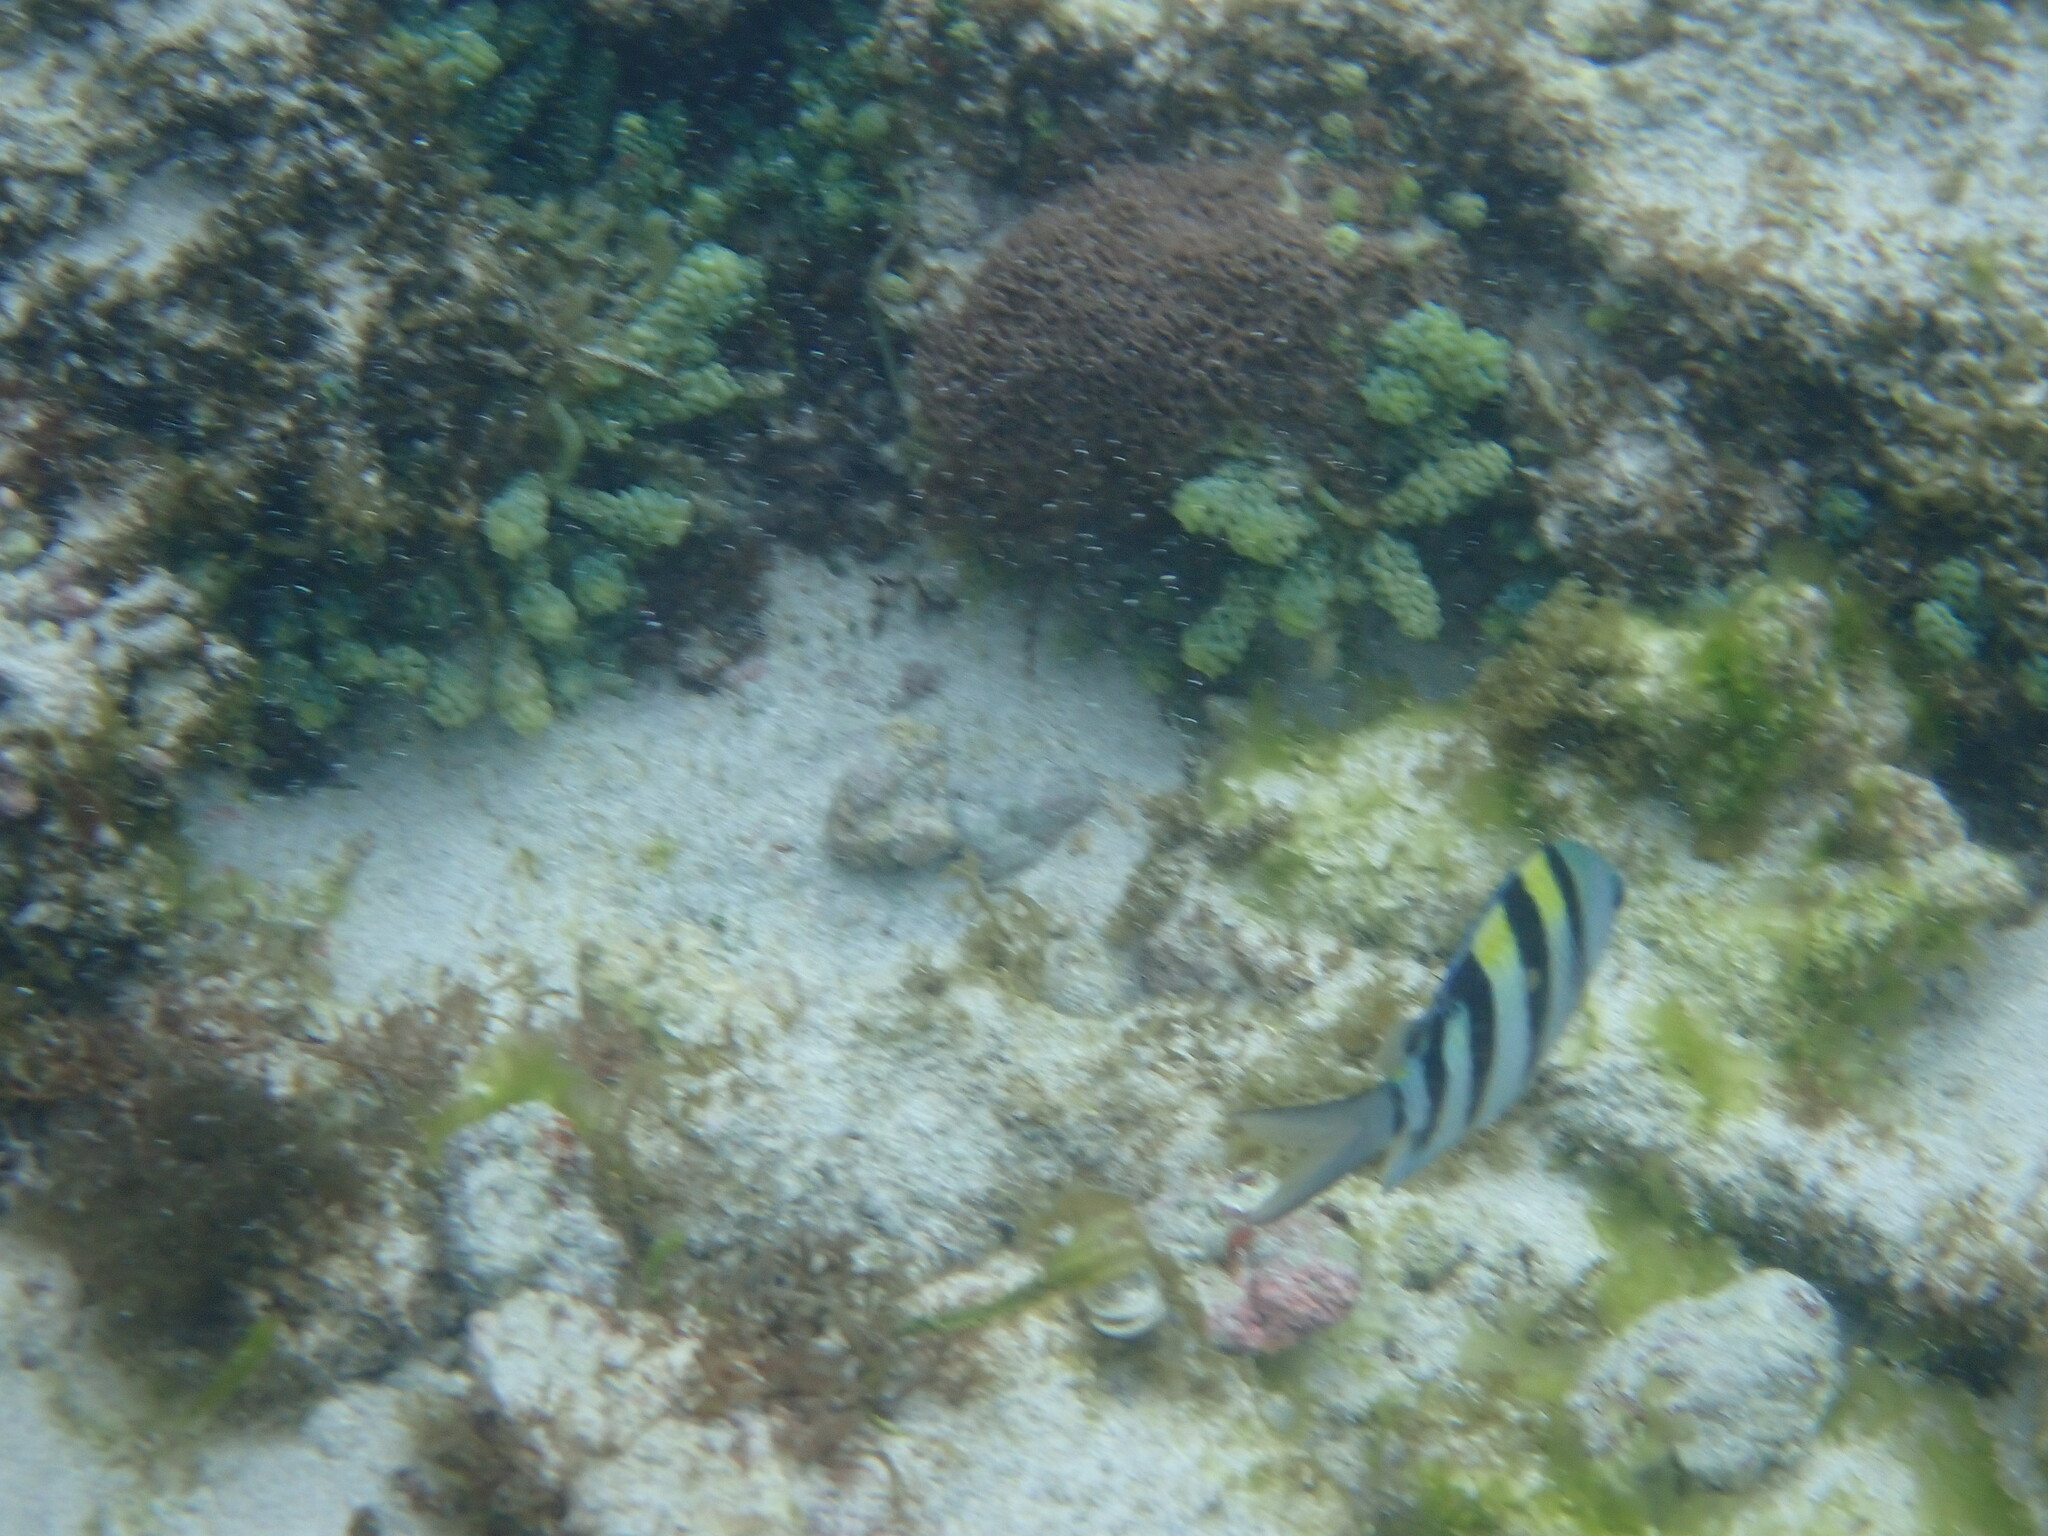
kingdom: Animalia
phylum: Chordata
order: Perciformes
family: Pomacentridae
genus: Abudefduf
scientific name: Abudefduf vaigiensis
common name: Indo-pacific sergeant
